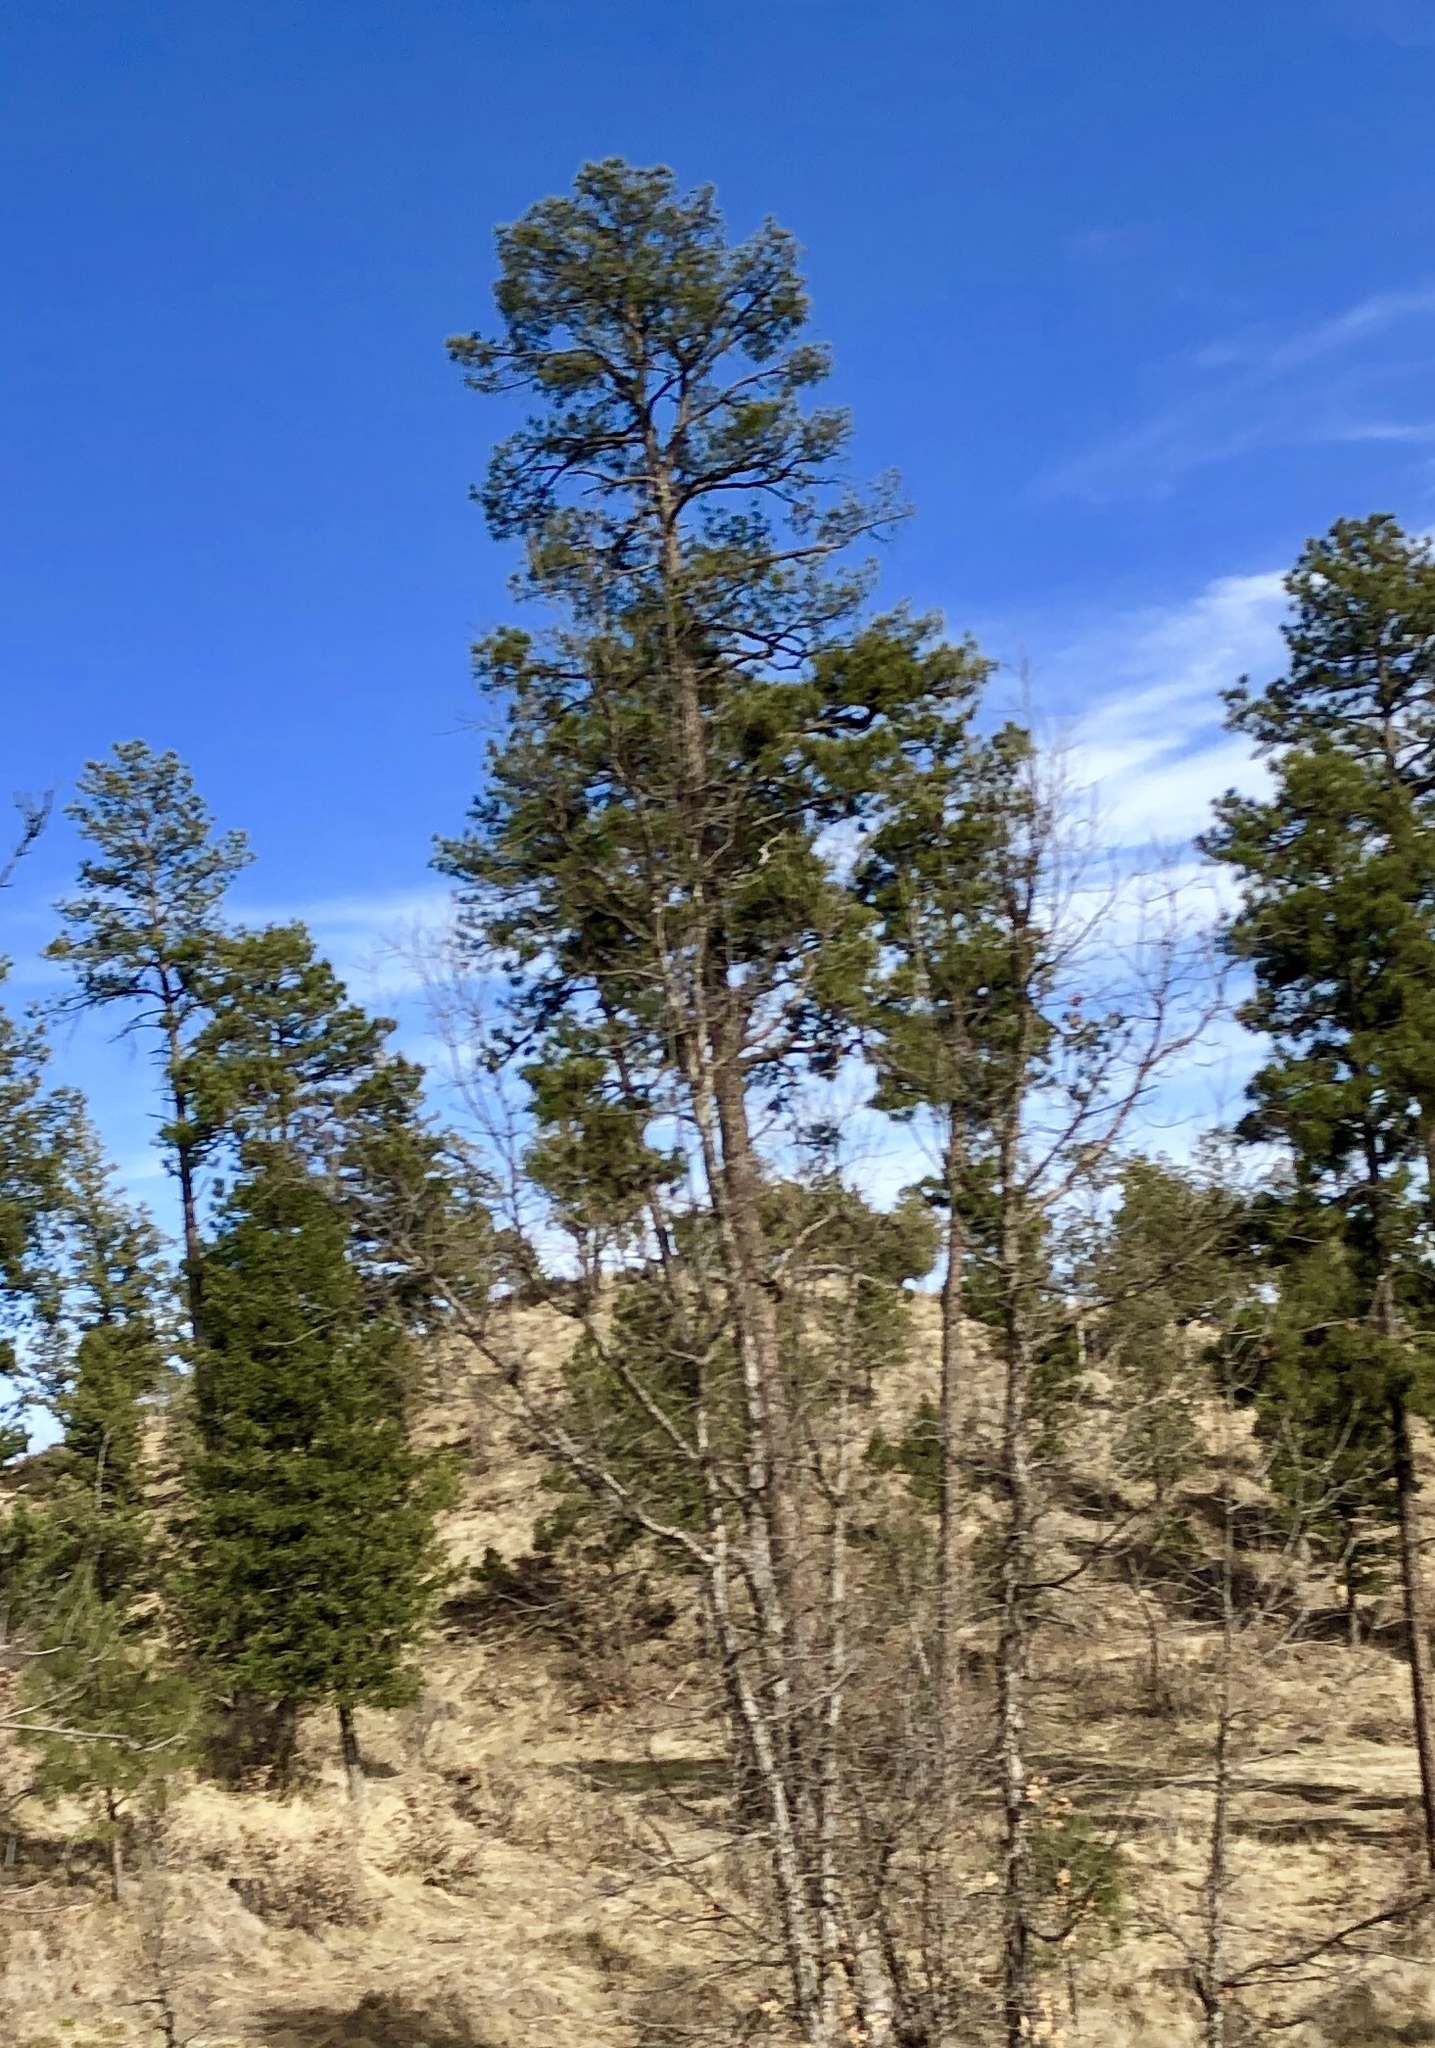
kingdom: Plantae
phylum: Tracheophyta
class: Pinopsida
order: Pinales
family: Pinaceae
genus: Pinus
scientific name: Pinus ponderosa
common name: Western yellow-pine
